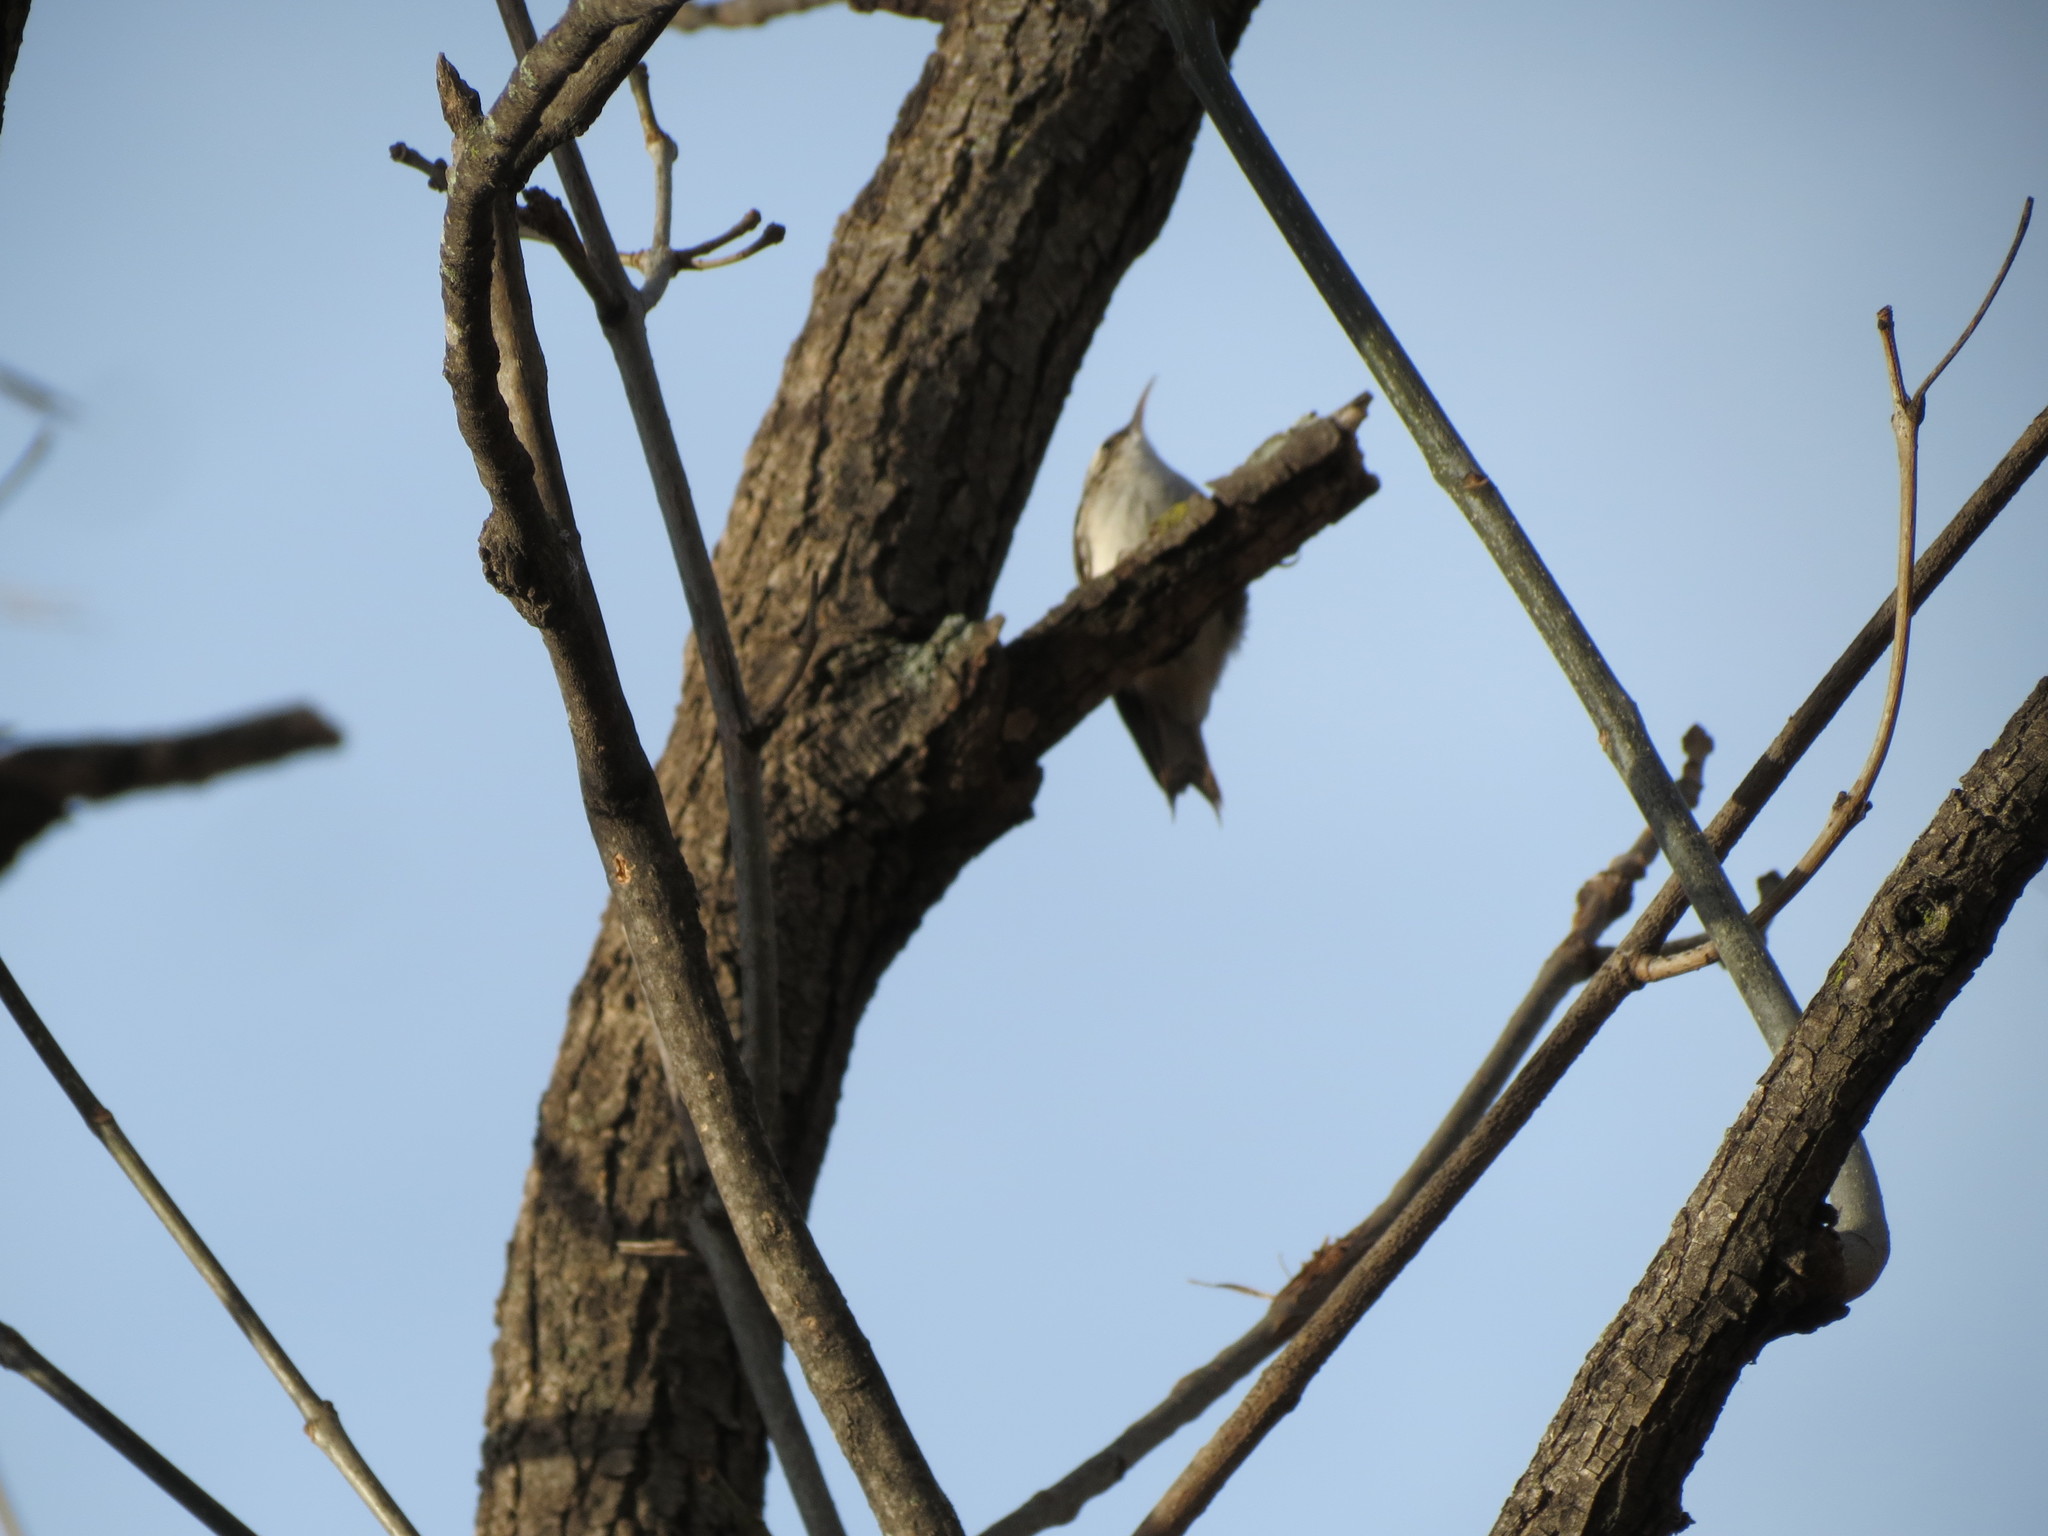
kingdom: Animalia
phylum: Chordata
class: Aves
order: Passeriformes
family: Certhiidae
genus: Certhia
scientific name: Certhia americana
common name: Brown creeper
